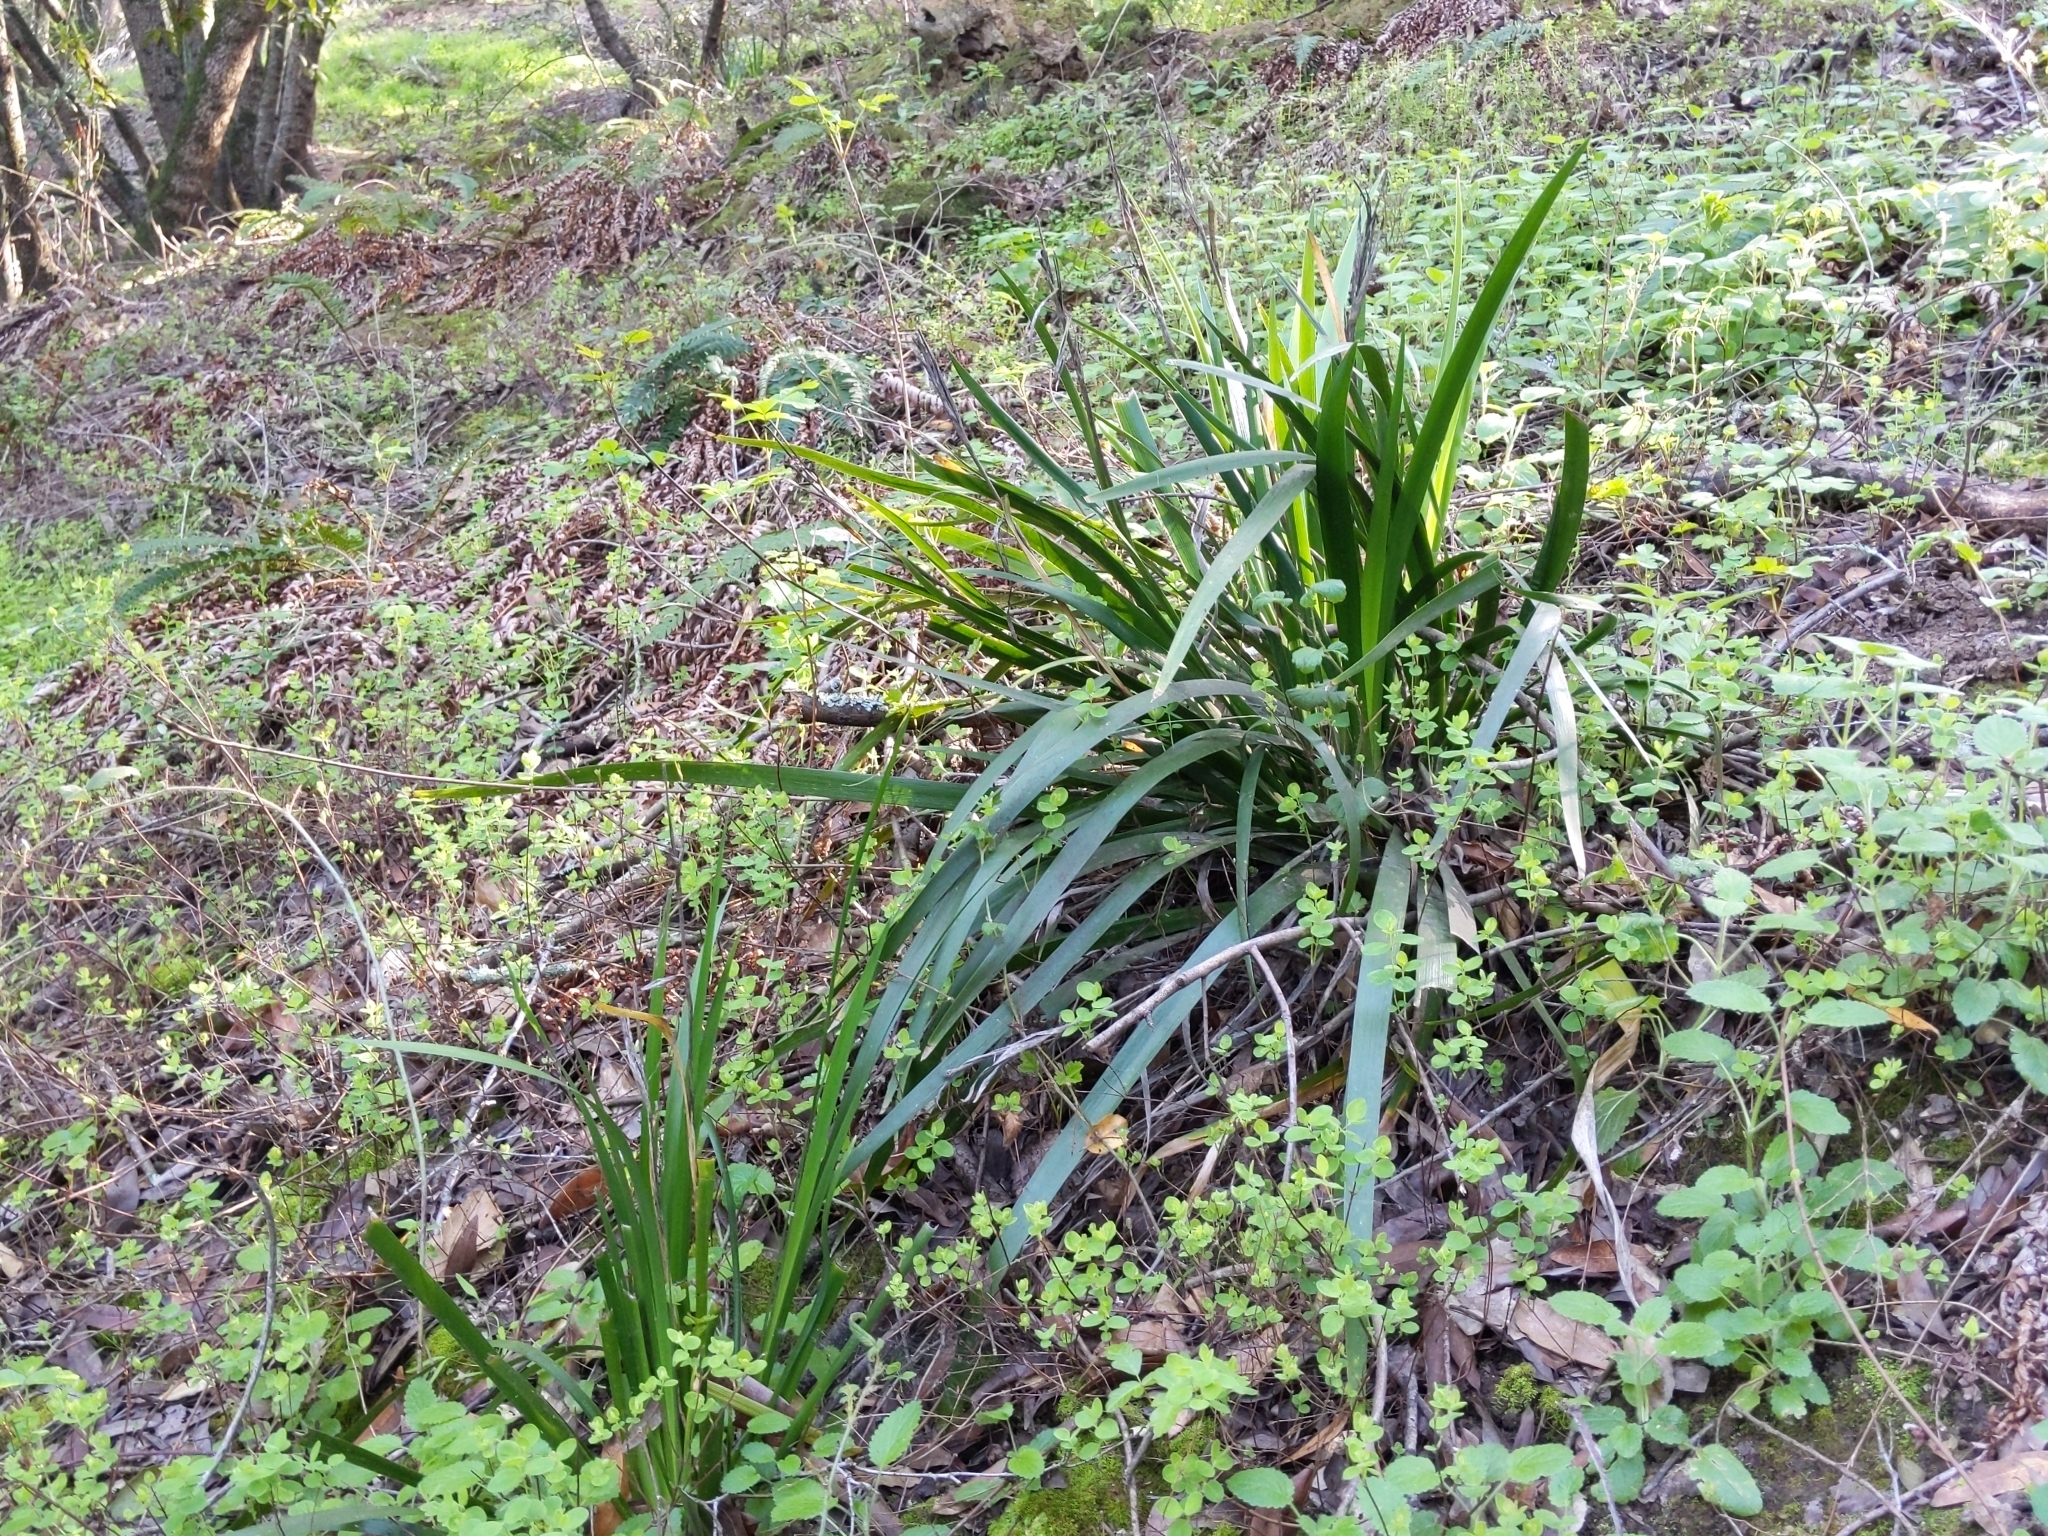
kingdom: Plantae
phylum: Tracheophyta
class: Liliopsida
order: Asparagales
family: Iridaceae
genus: Iris
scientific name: Iris foetidissima
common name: Stinking iris
